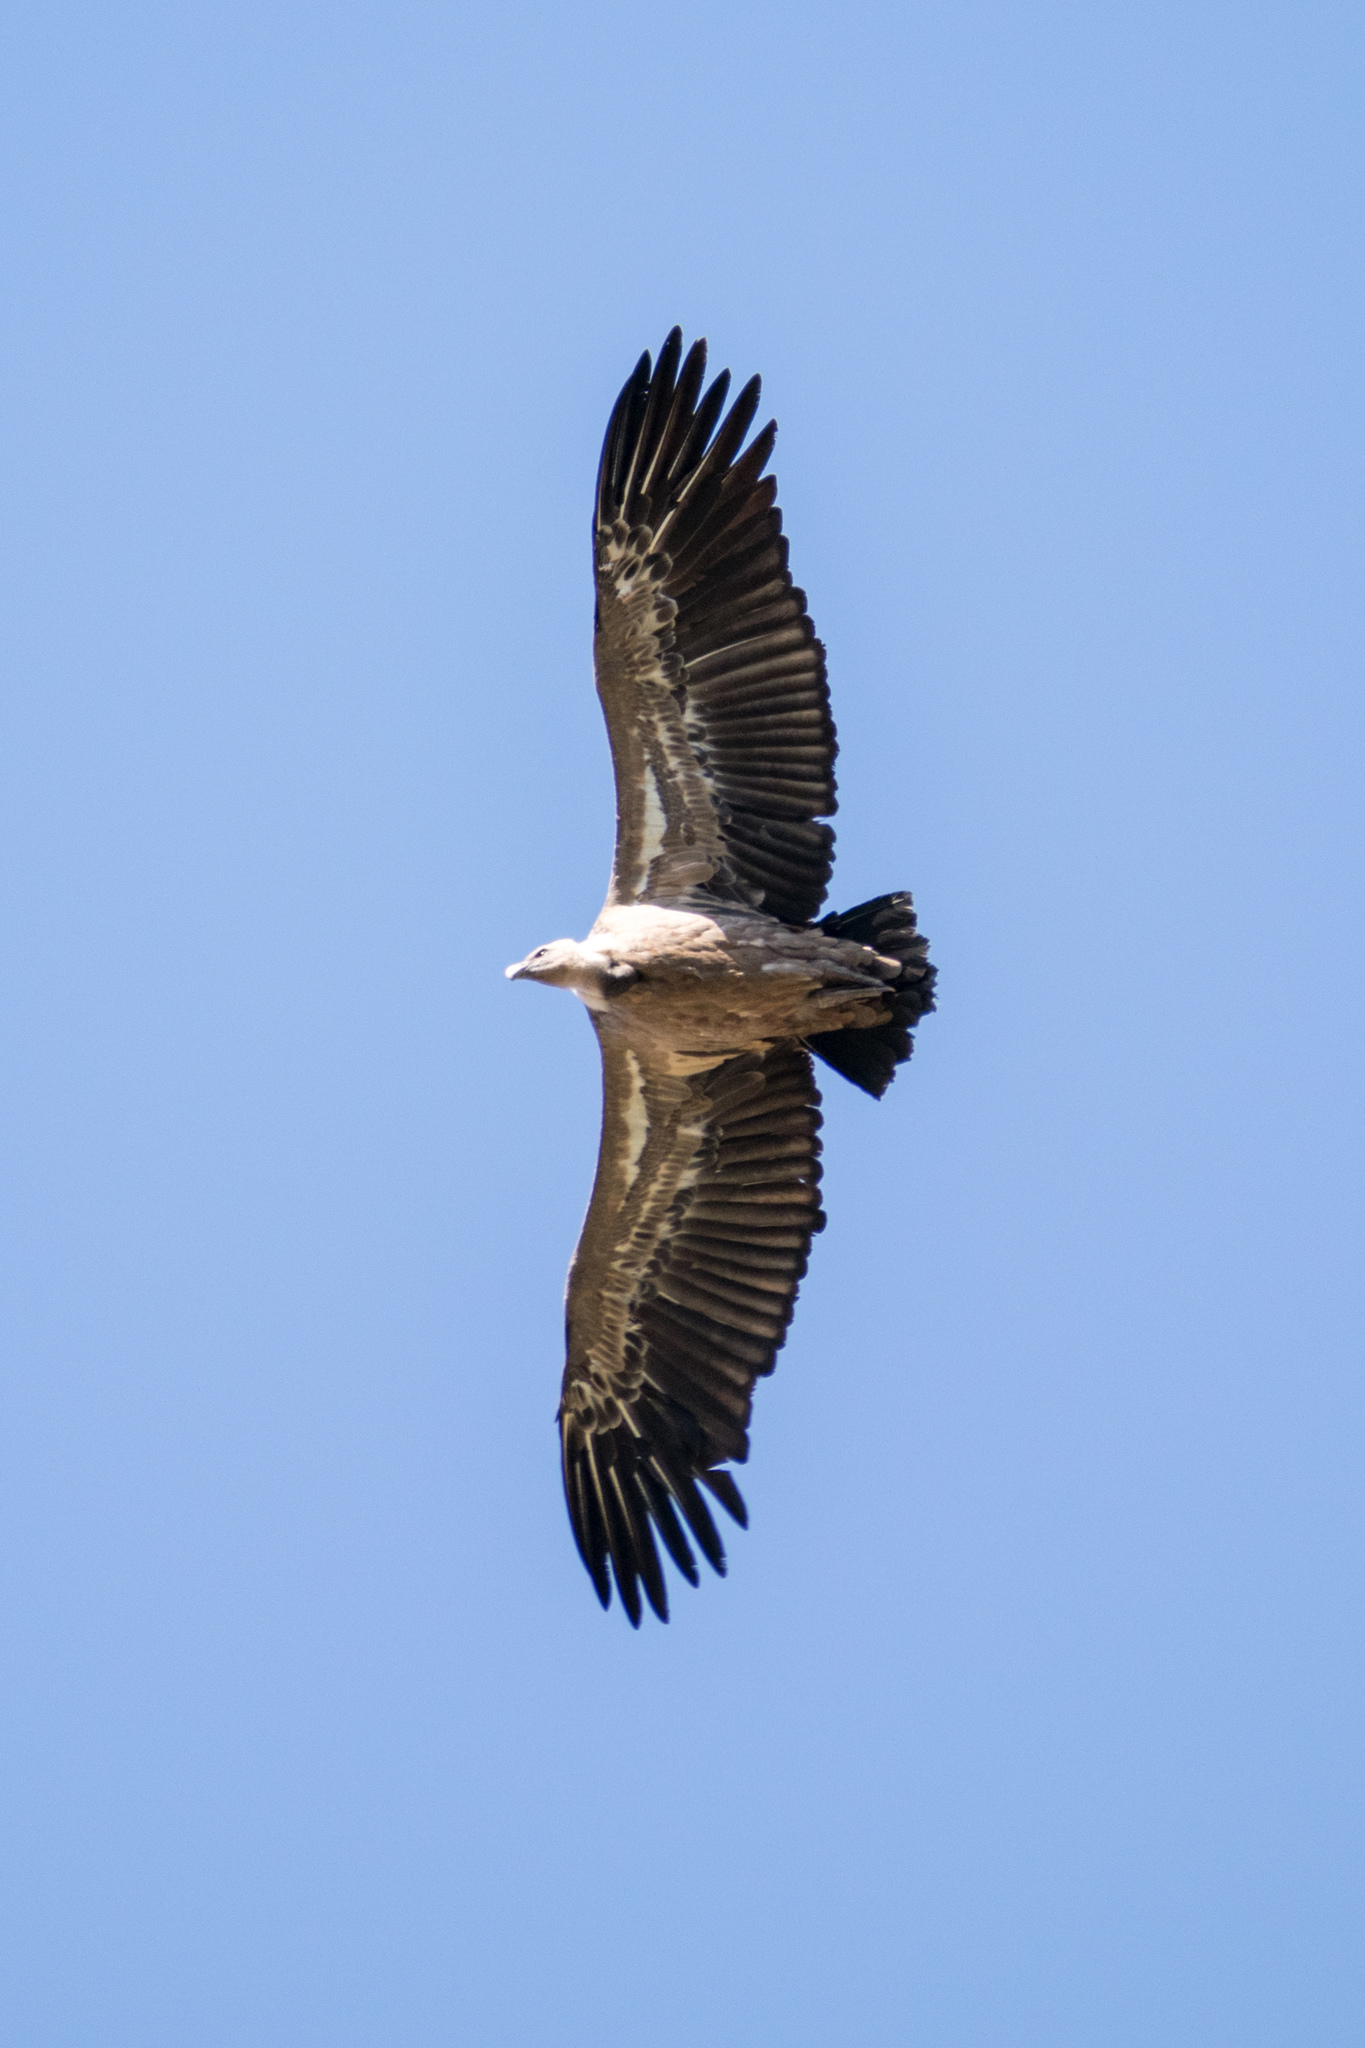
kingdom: Animalia
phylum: Chordata
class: Aves
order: Accipitriformes
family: Accipitridae
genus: Gyps
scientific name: Gyps fulvus
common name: Griffon vulture
